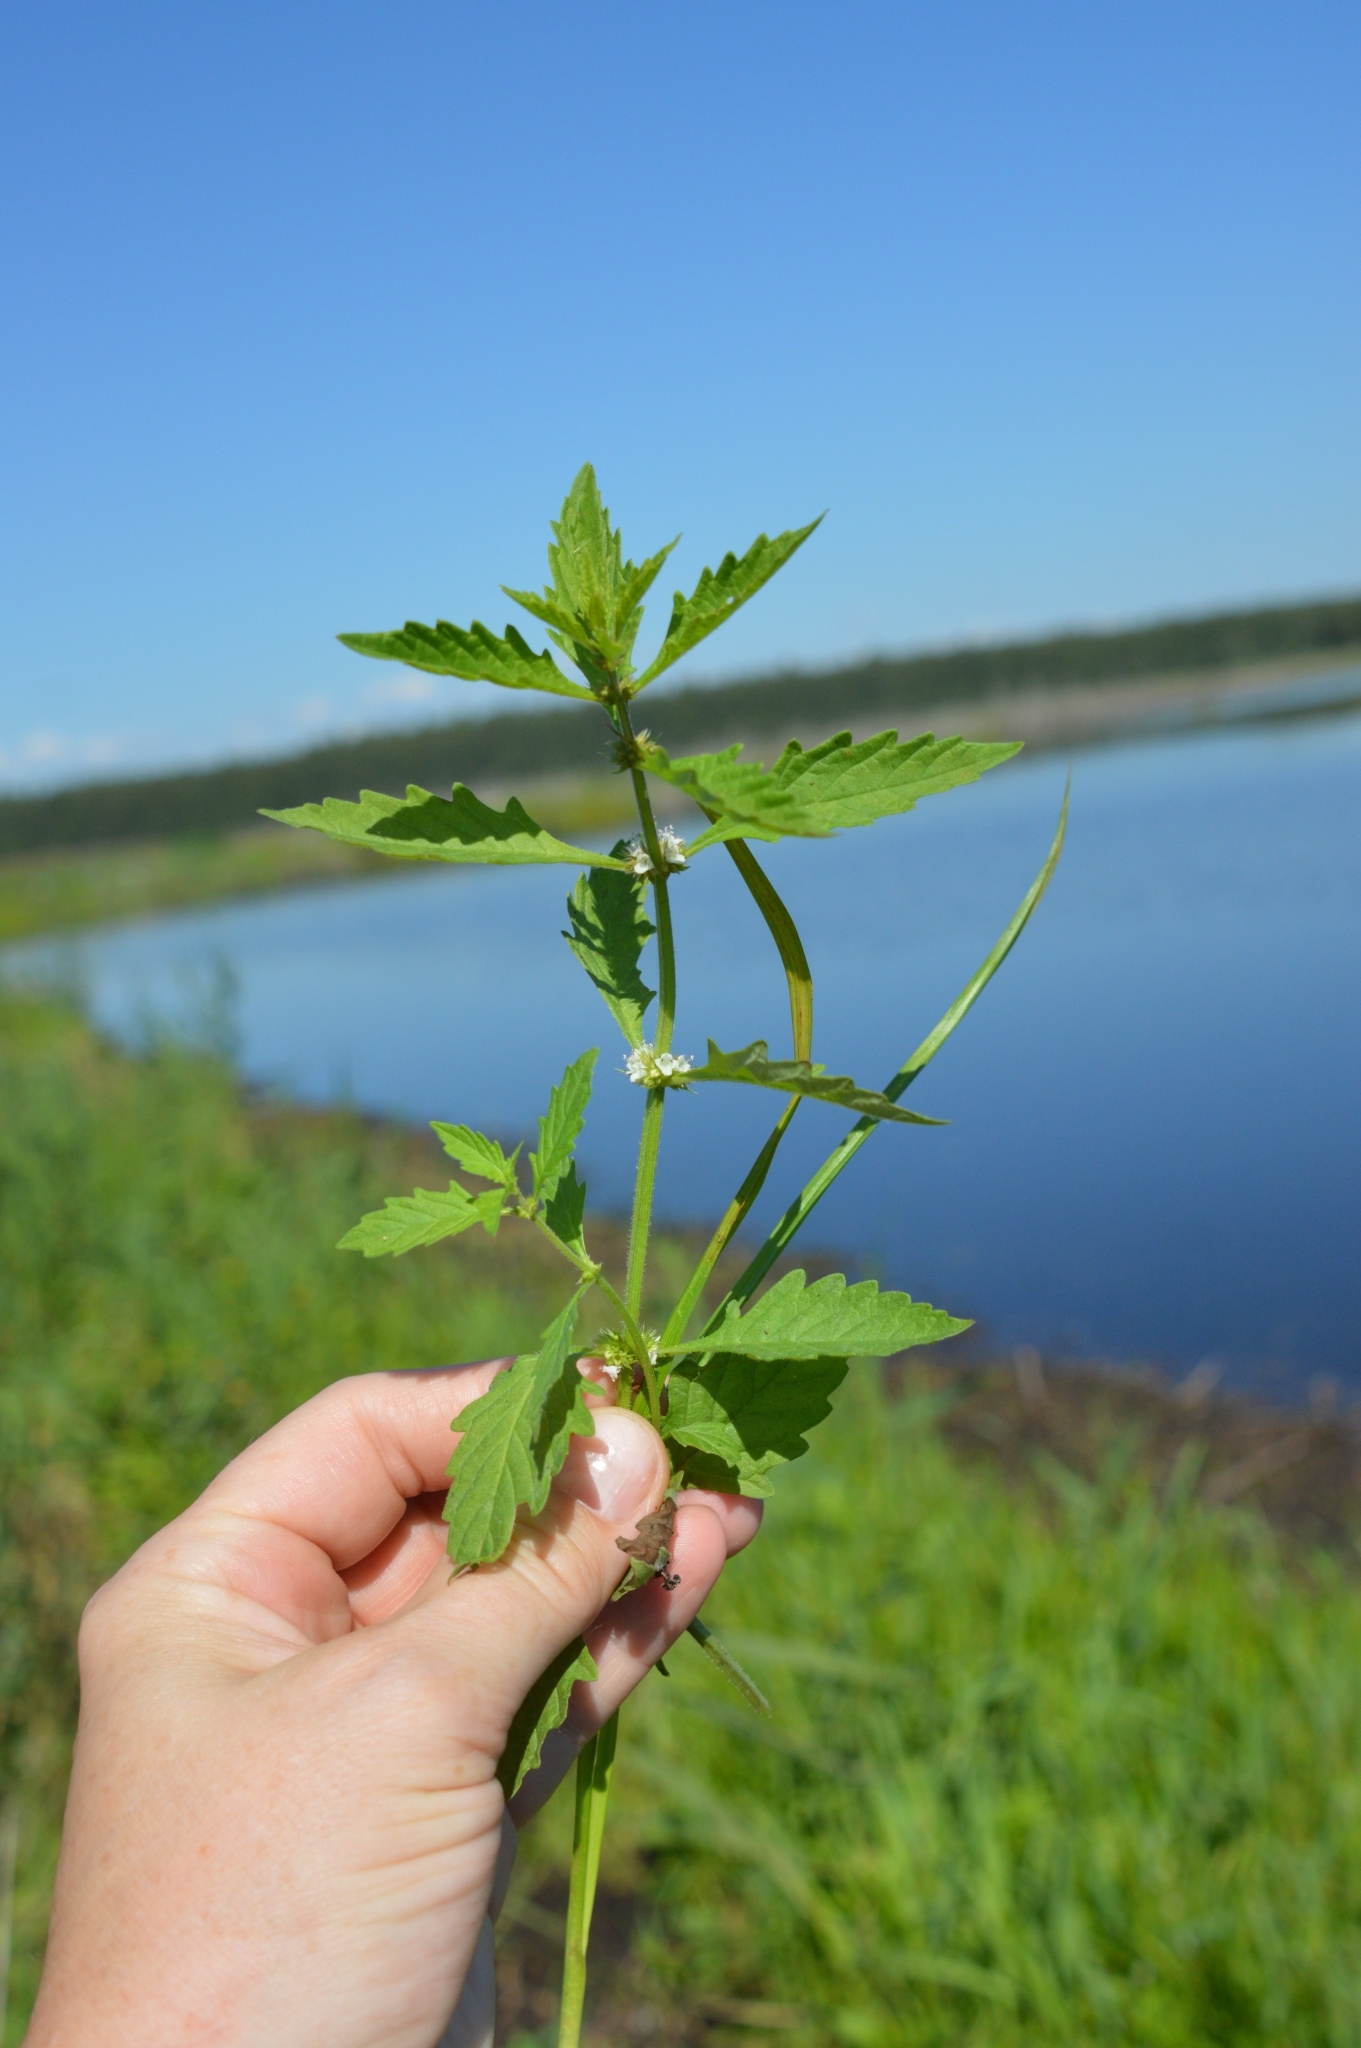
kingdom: Plantae
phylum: Tracheophyta
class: Magnoliopsida
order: Lamiales
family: Lamiaceae
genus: Lycopus
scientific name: Lycopus europaeus
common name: European bugleweed
